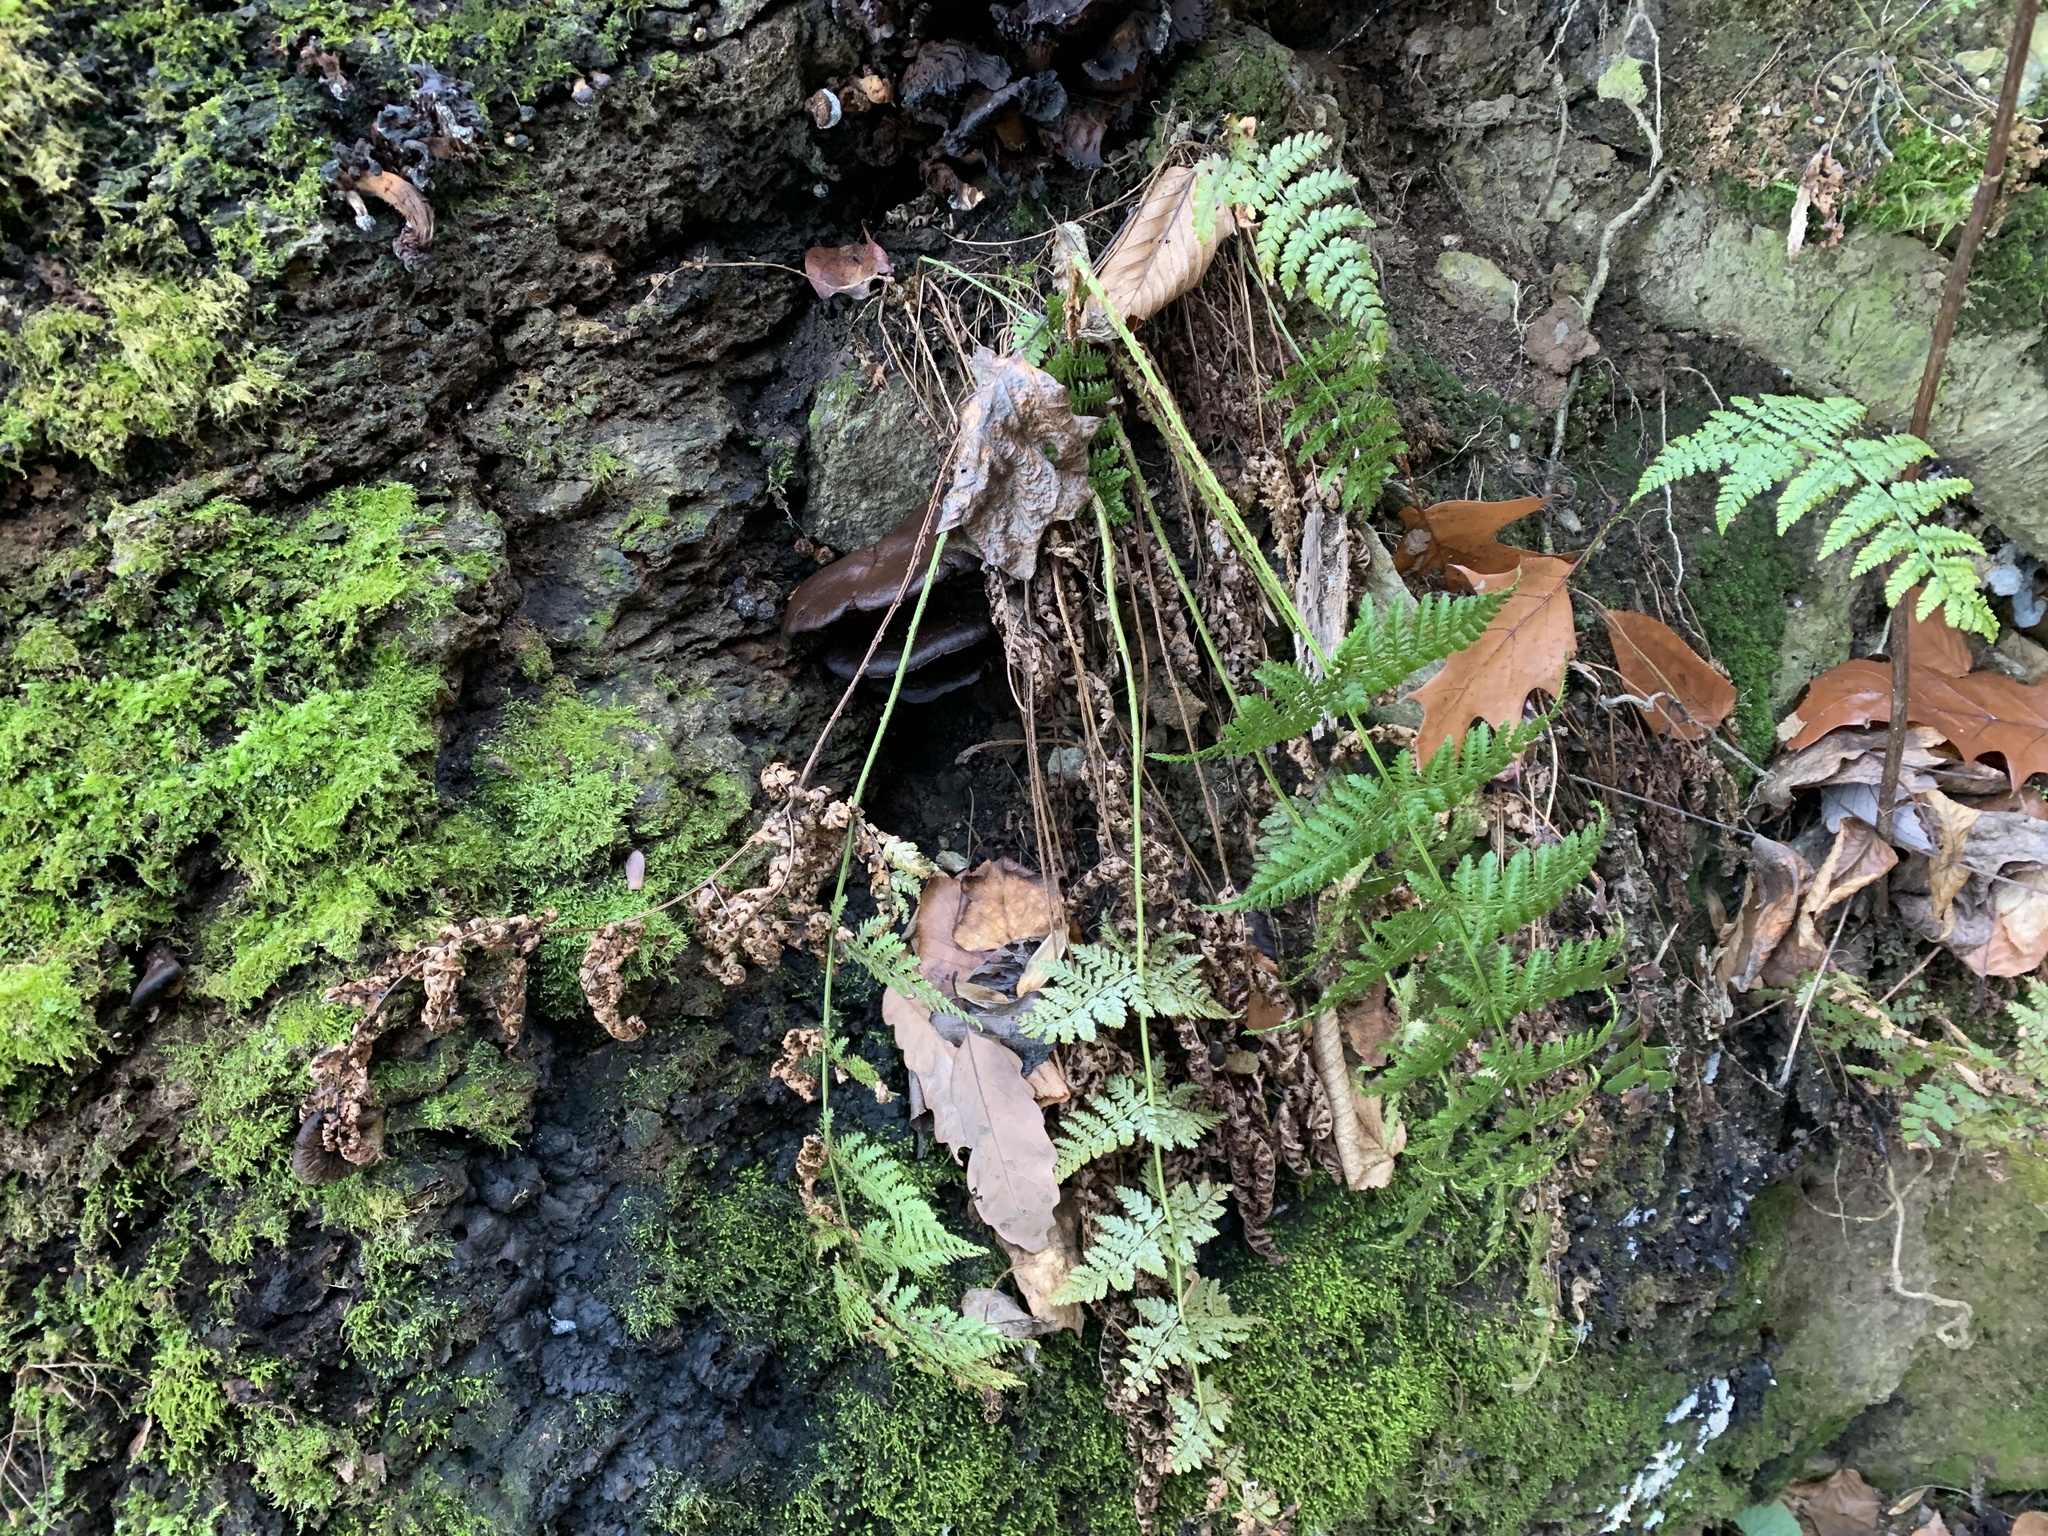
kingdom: Plantae
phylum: Tracheophyta
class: Polypodiopsida
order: Polypodiales
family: Dryopteridaceae
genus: Dryopteris
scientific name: Dryopteris intermedia
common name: Evergreen wood fern
